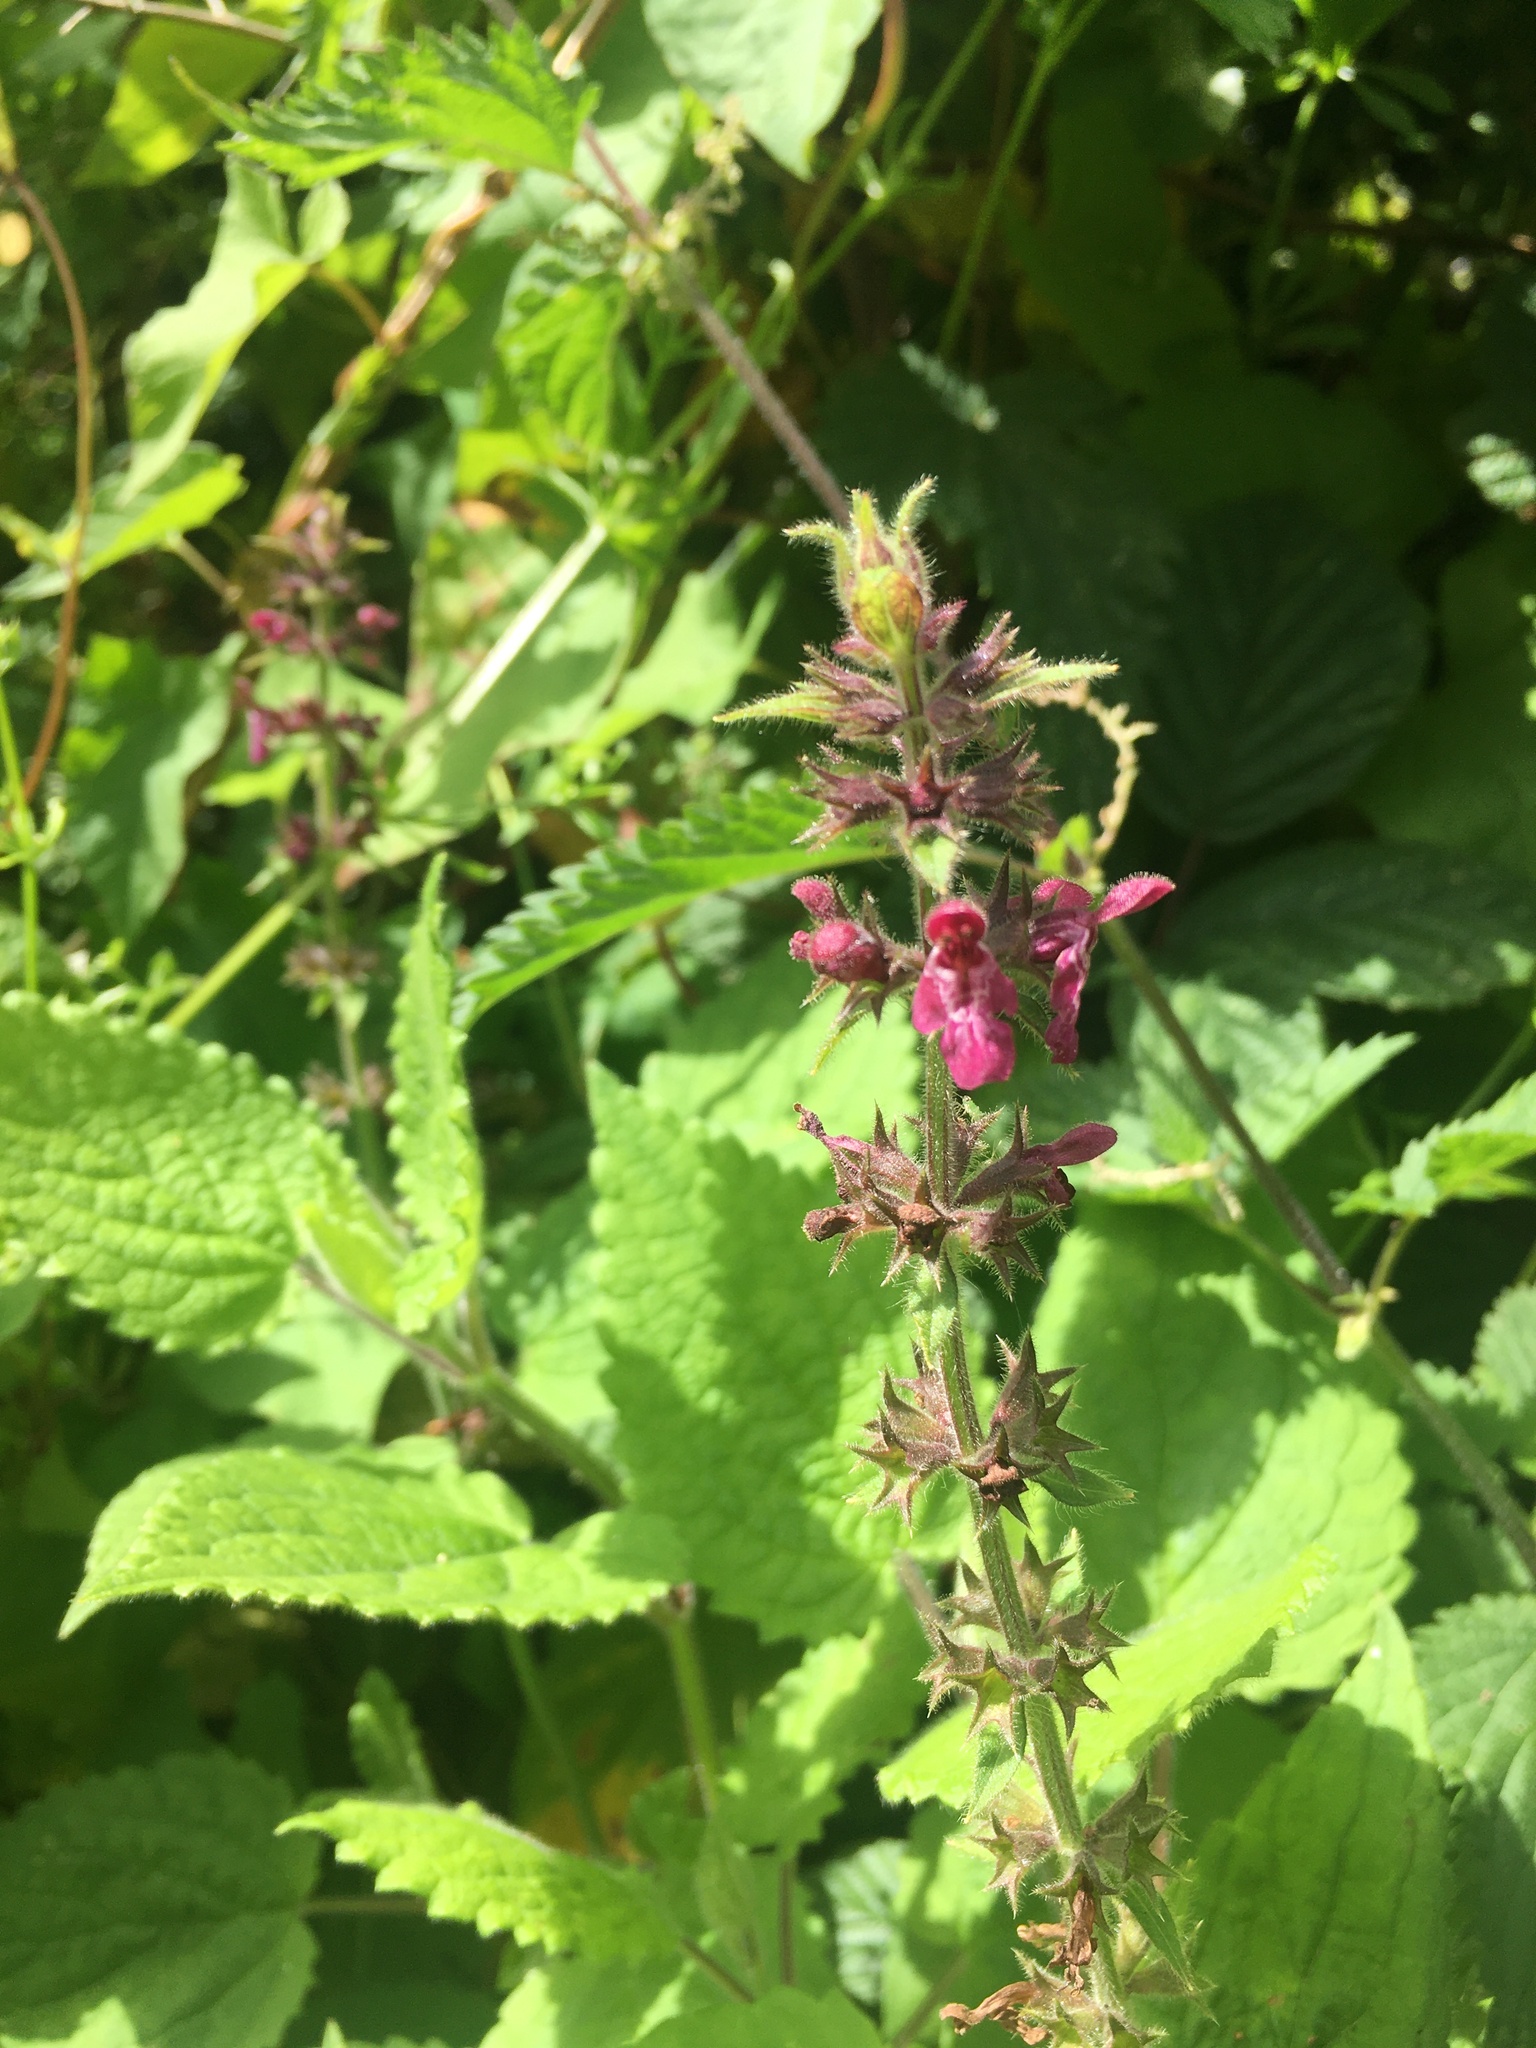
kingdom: Plantae
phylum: Tracheophyta
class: Magnoliopsida
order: Lamiales
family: Lamiaceae
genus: Stachys
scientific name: Stachys sylvatica
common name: Hedge woundwort
